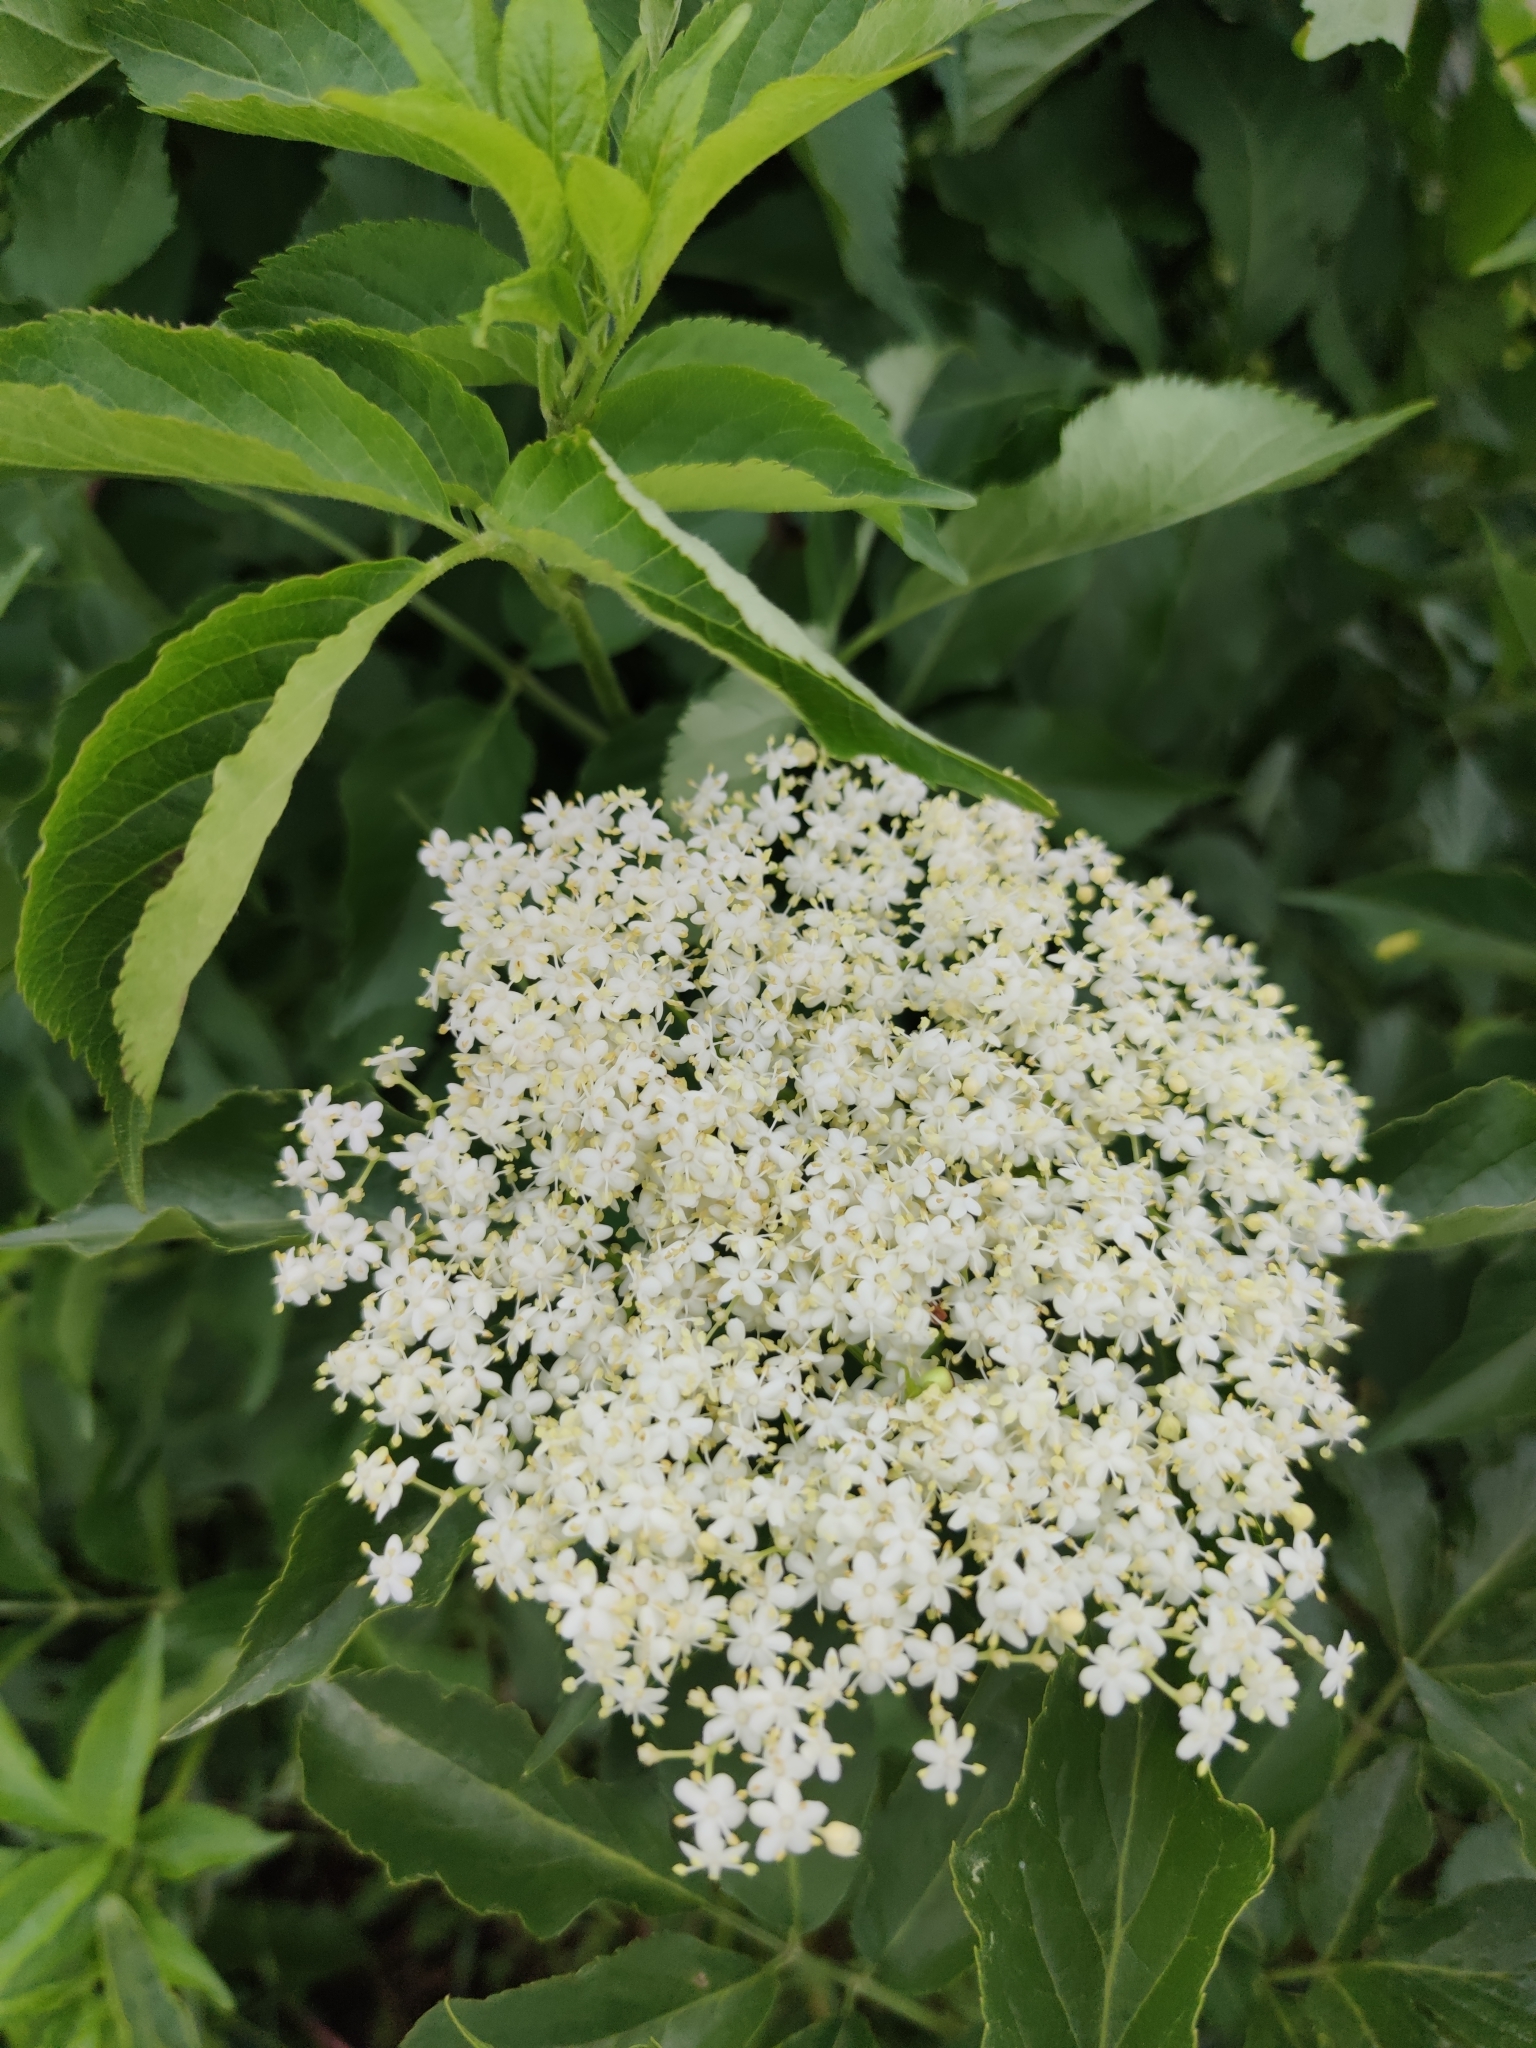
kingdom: Plantae
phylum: Tracheophyta
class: Magnoliopsida
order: Dipsacales
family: Viburnaceae
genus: Sambucus
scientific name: Sambucus nigra
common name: Elder
